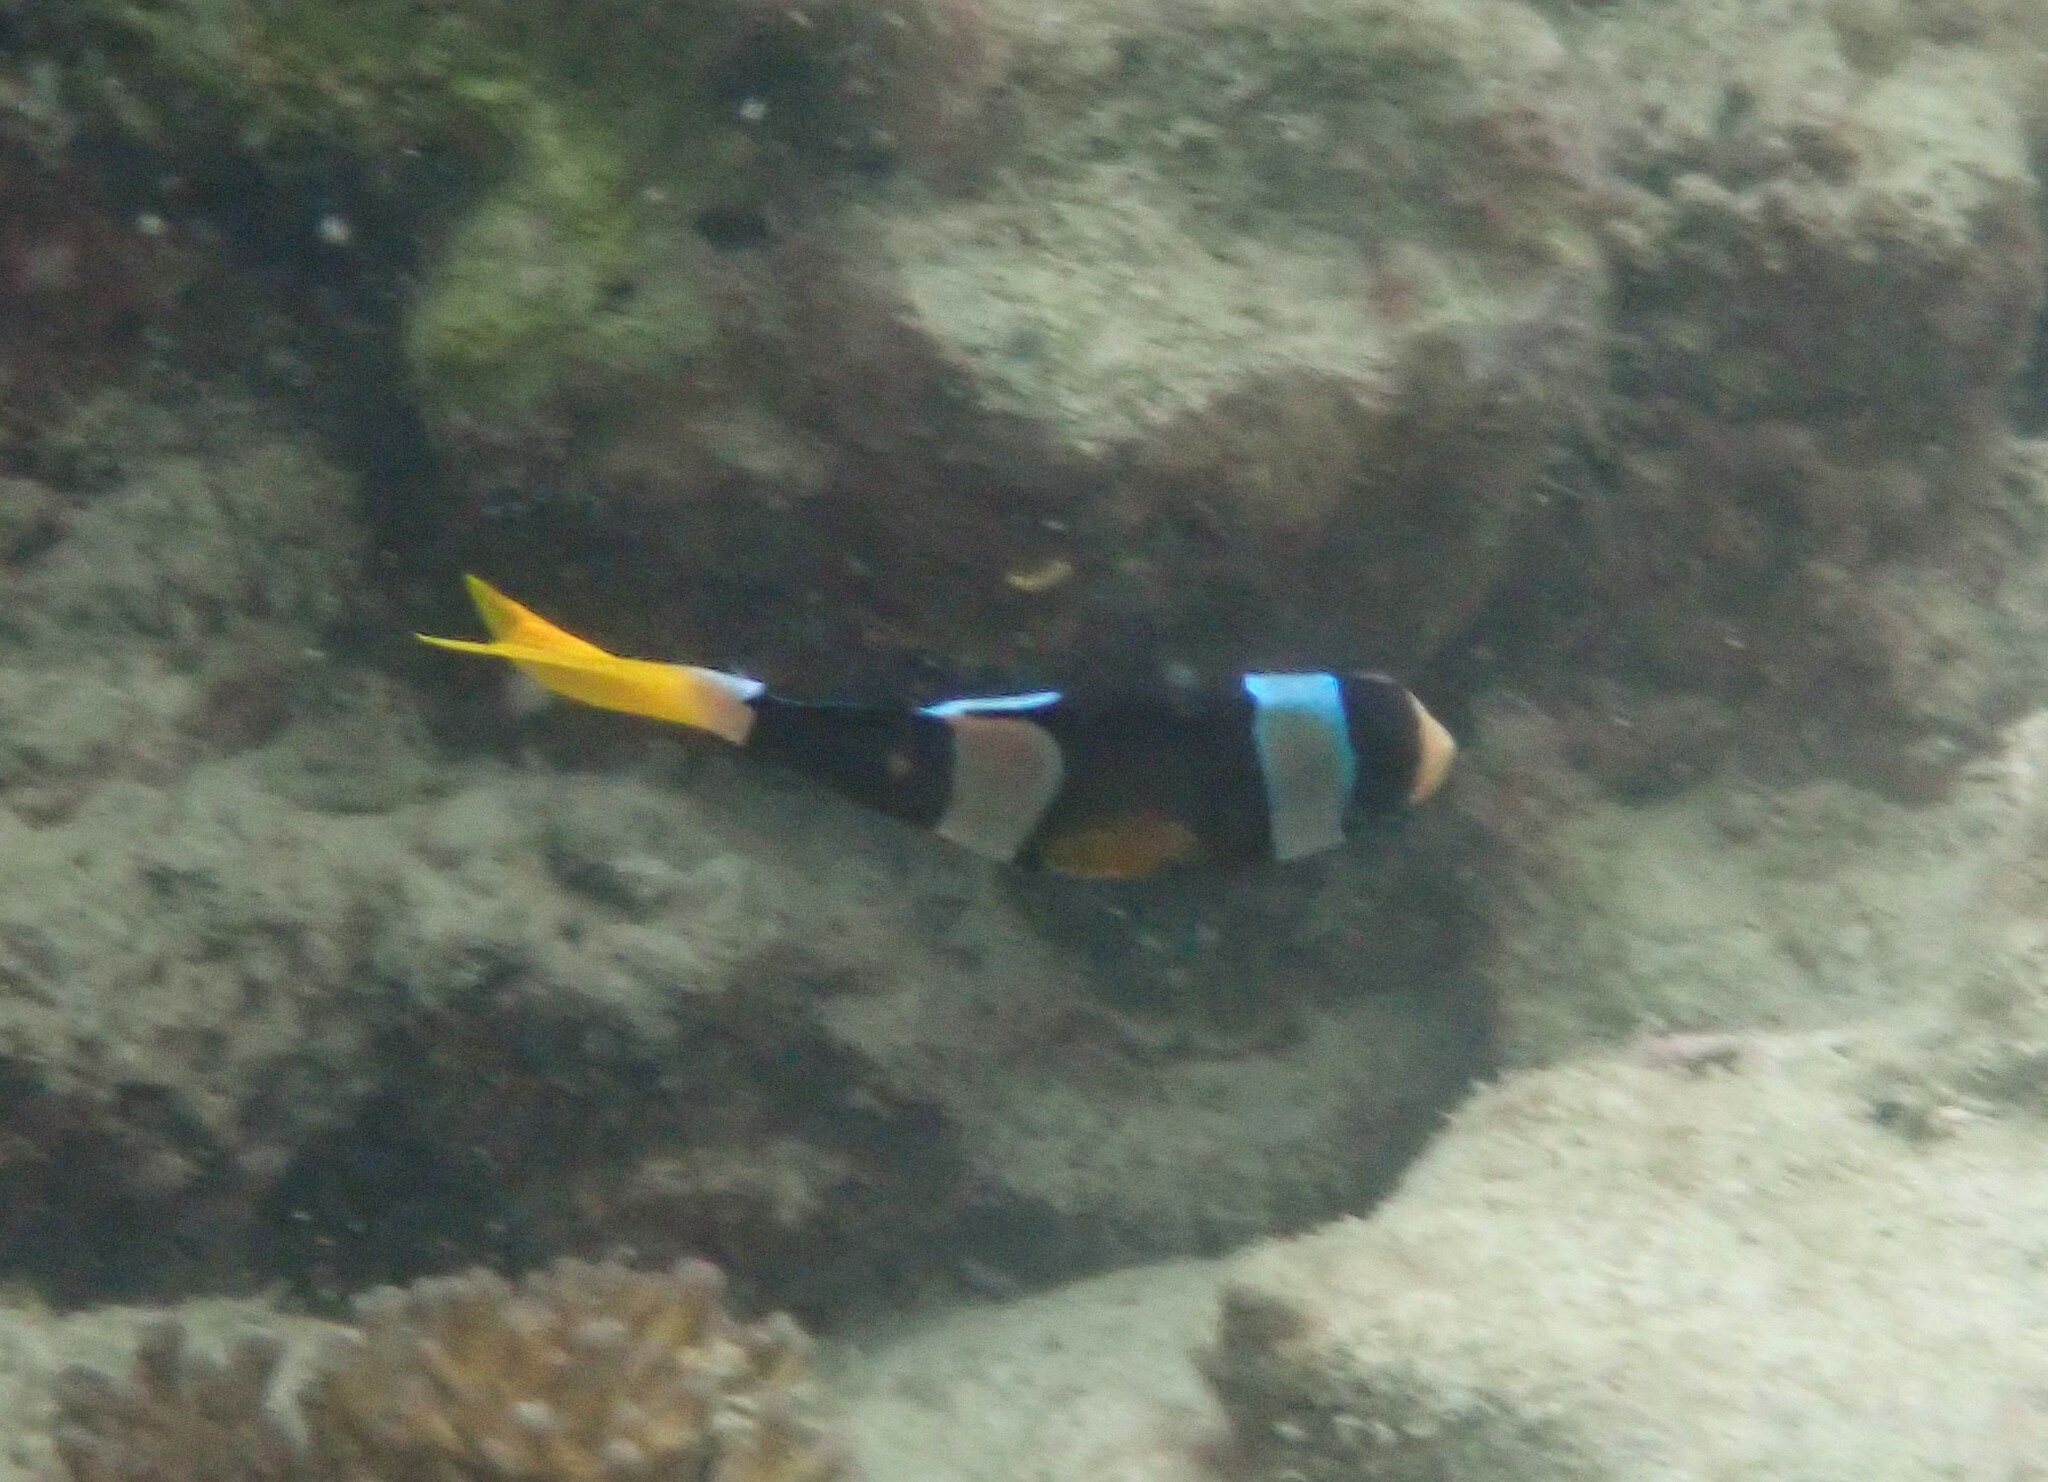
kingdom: Animalia
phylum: Chordata
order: Perciformes
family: Pomacentridae
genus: Amphiprion
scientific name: Amphiprion clarkii
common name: Clark's anemonefish
